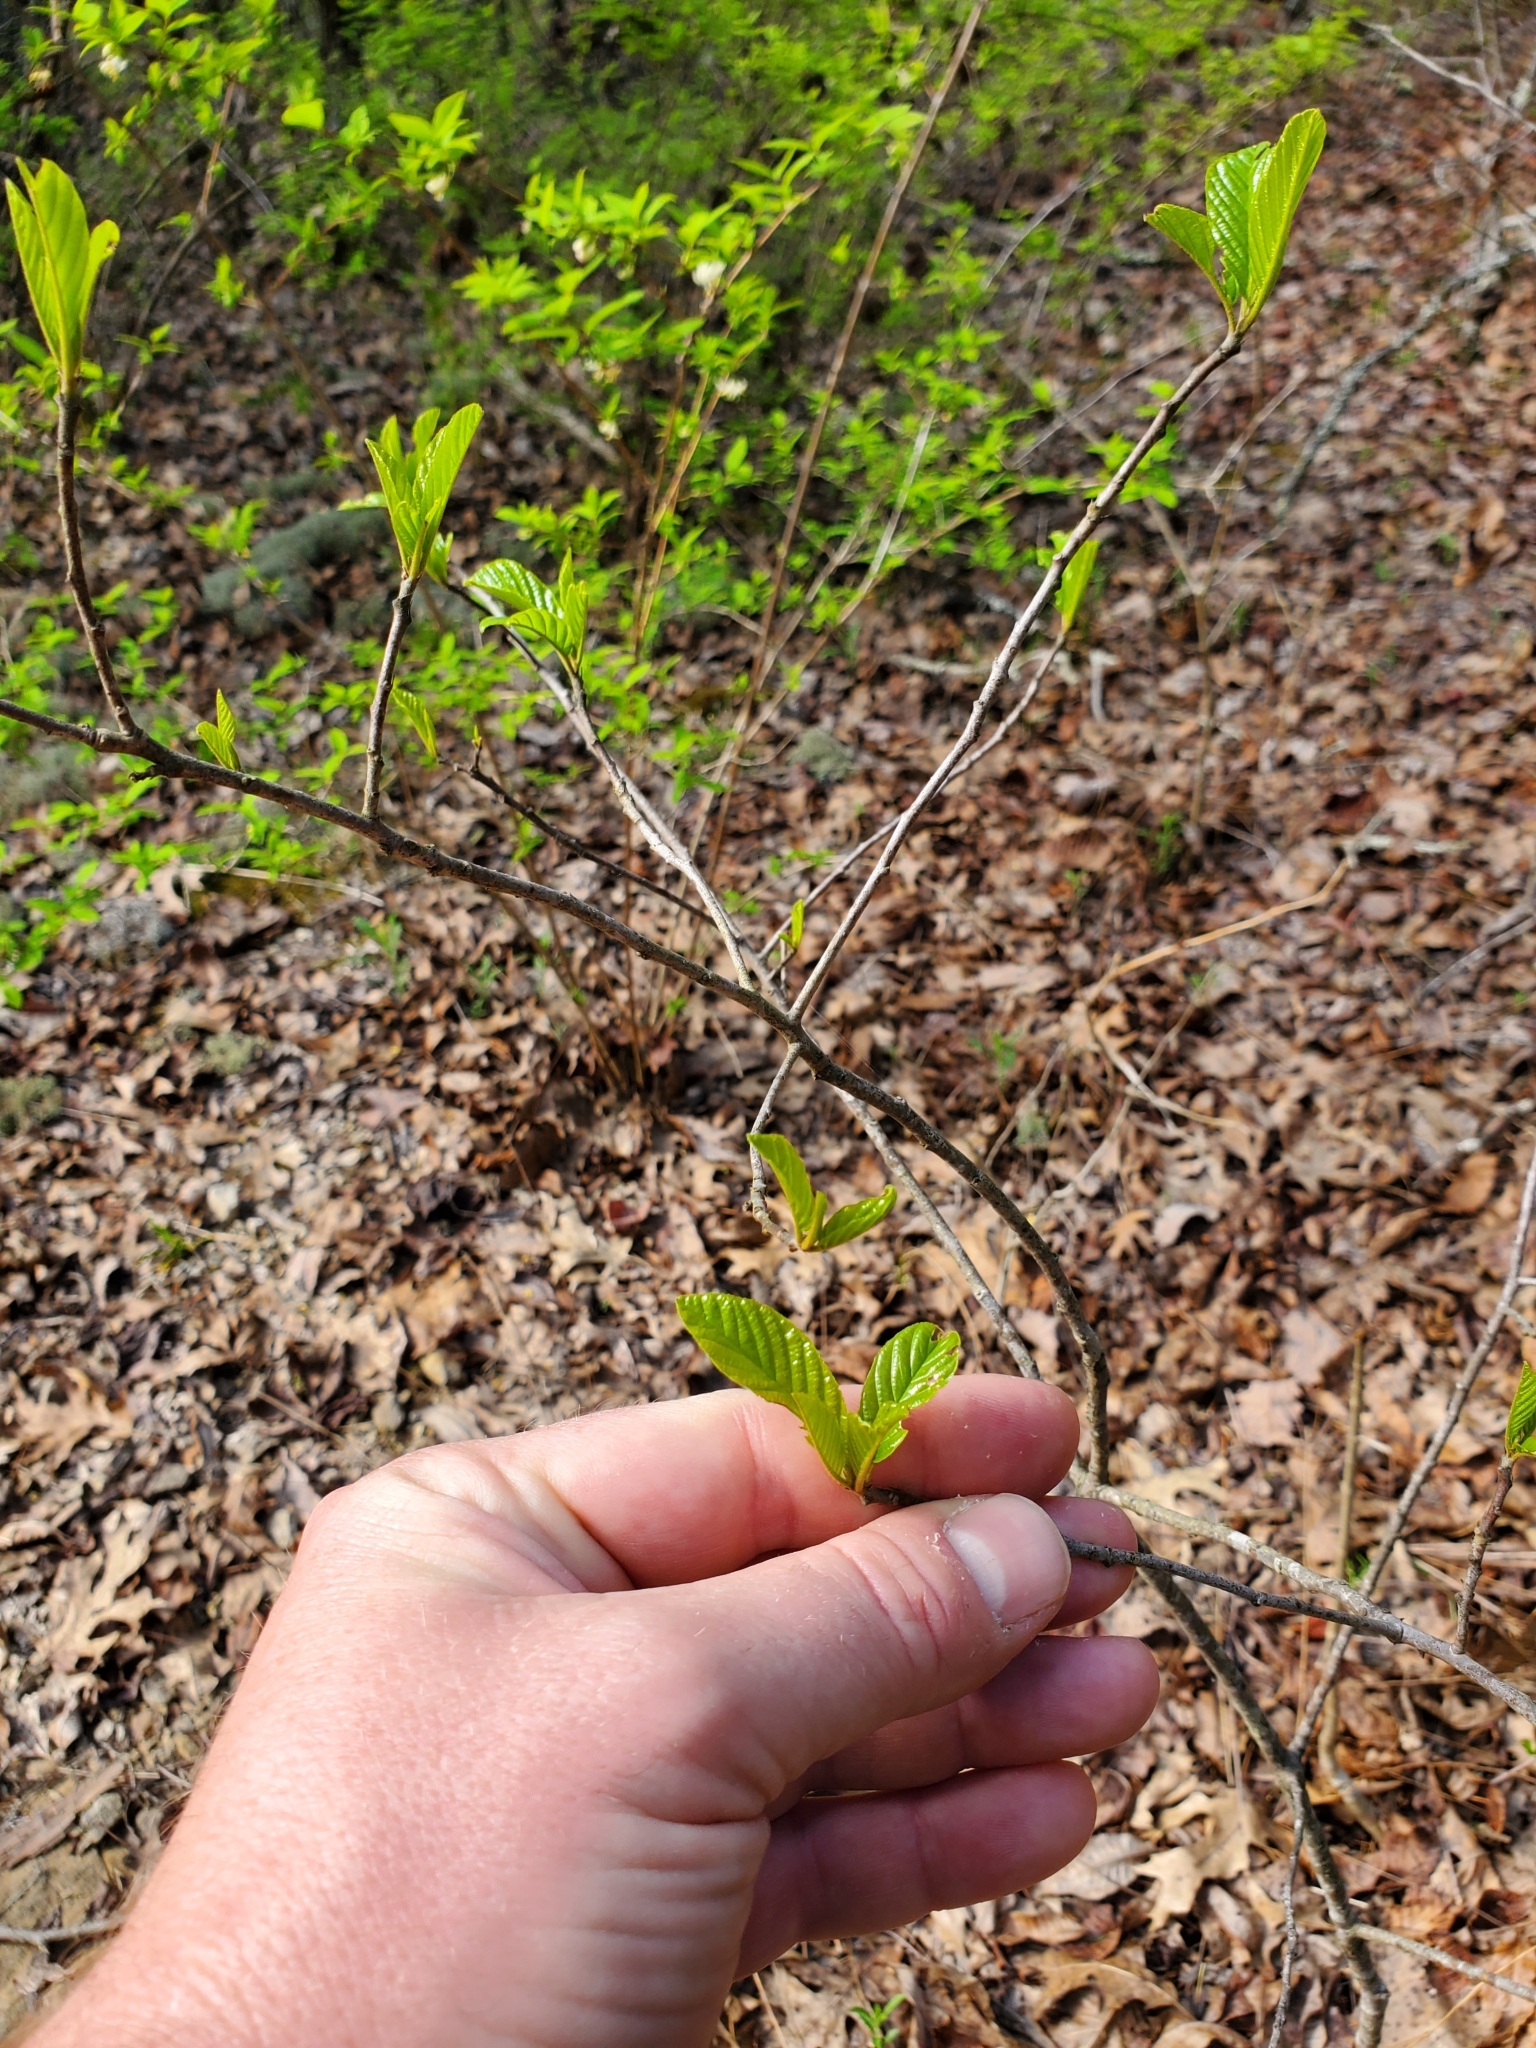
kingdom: Plantae
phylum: Tracheophyta
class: Magnoliopsida
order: Rosales
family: Rhamnaceae
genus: Frangula
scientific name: Frangula caroliniana
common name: Carolina buckthorn
